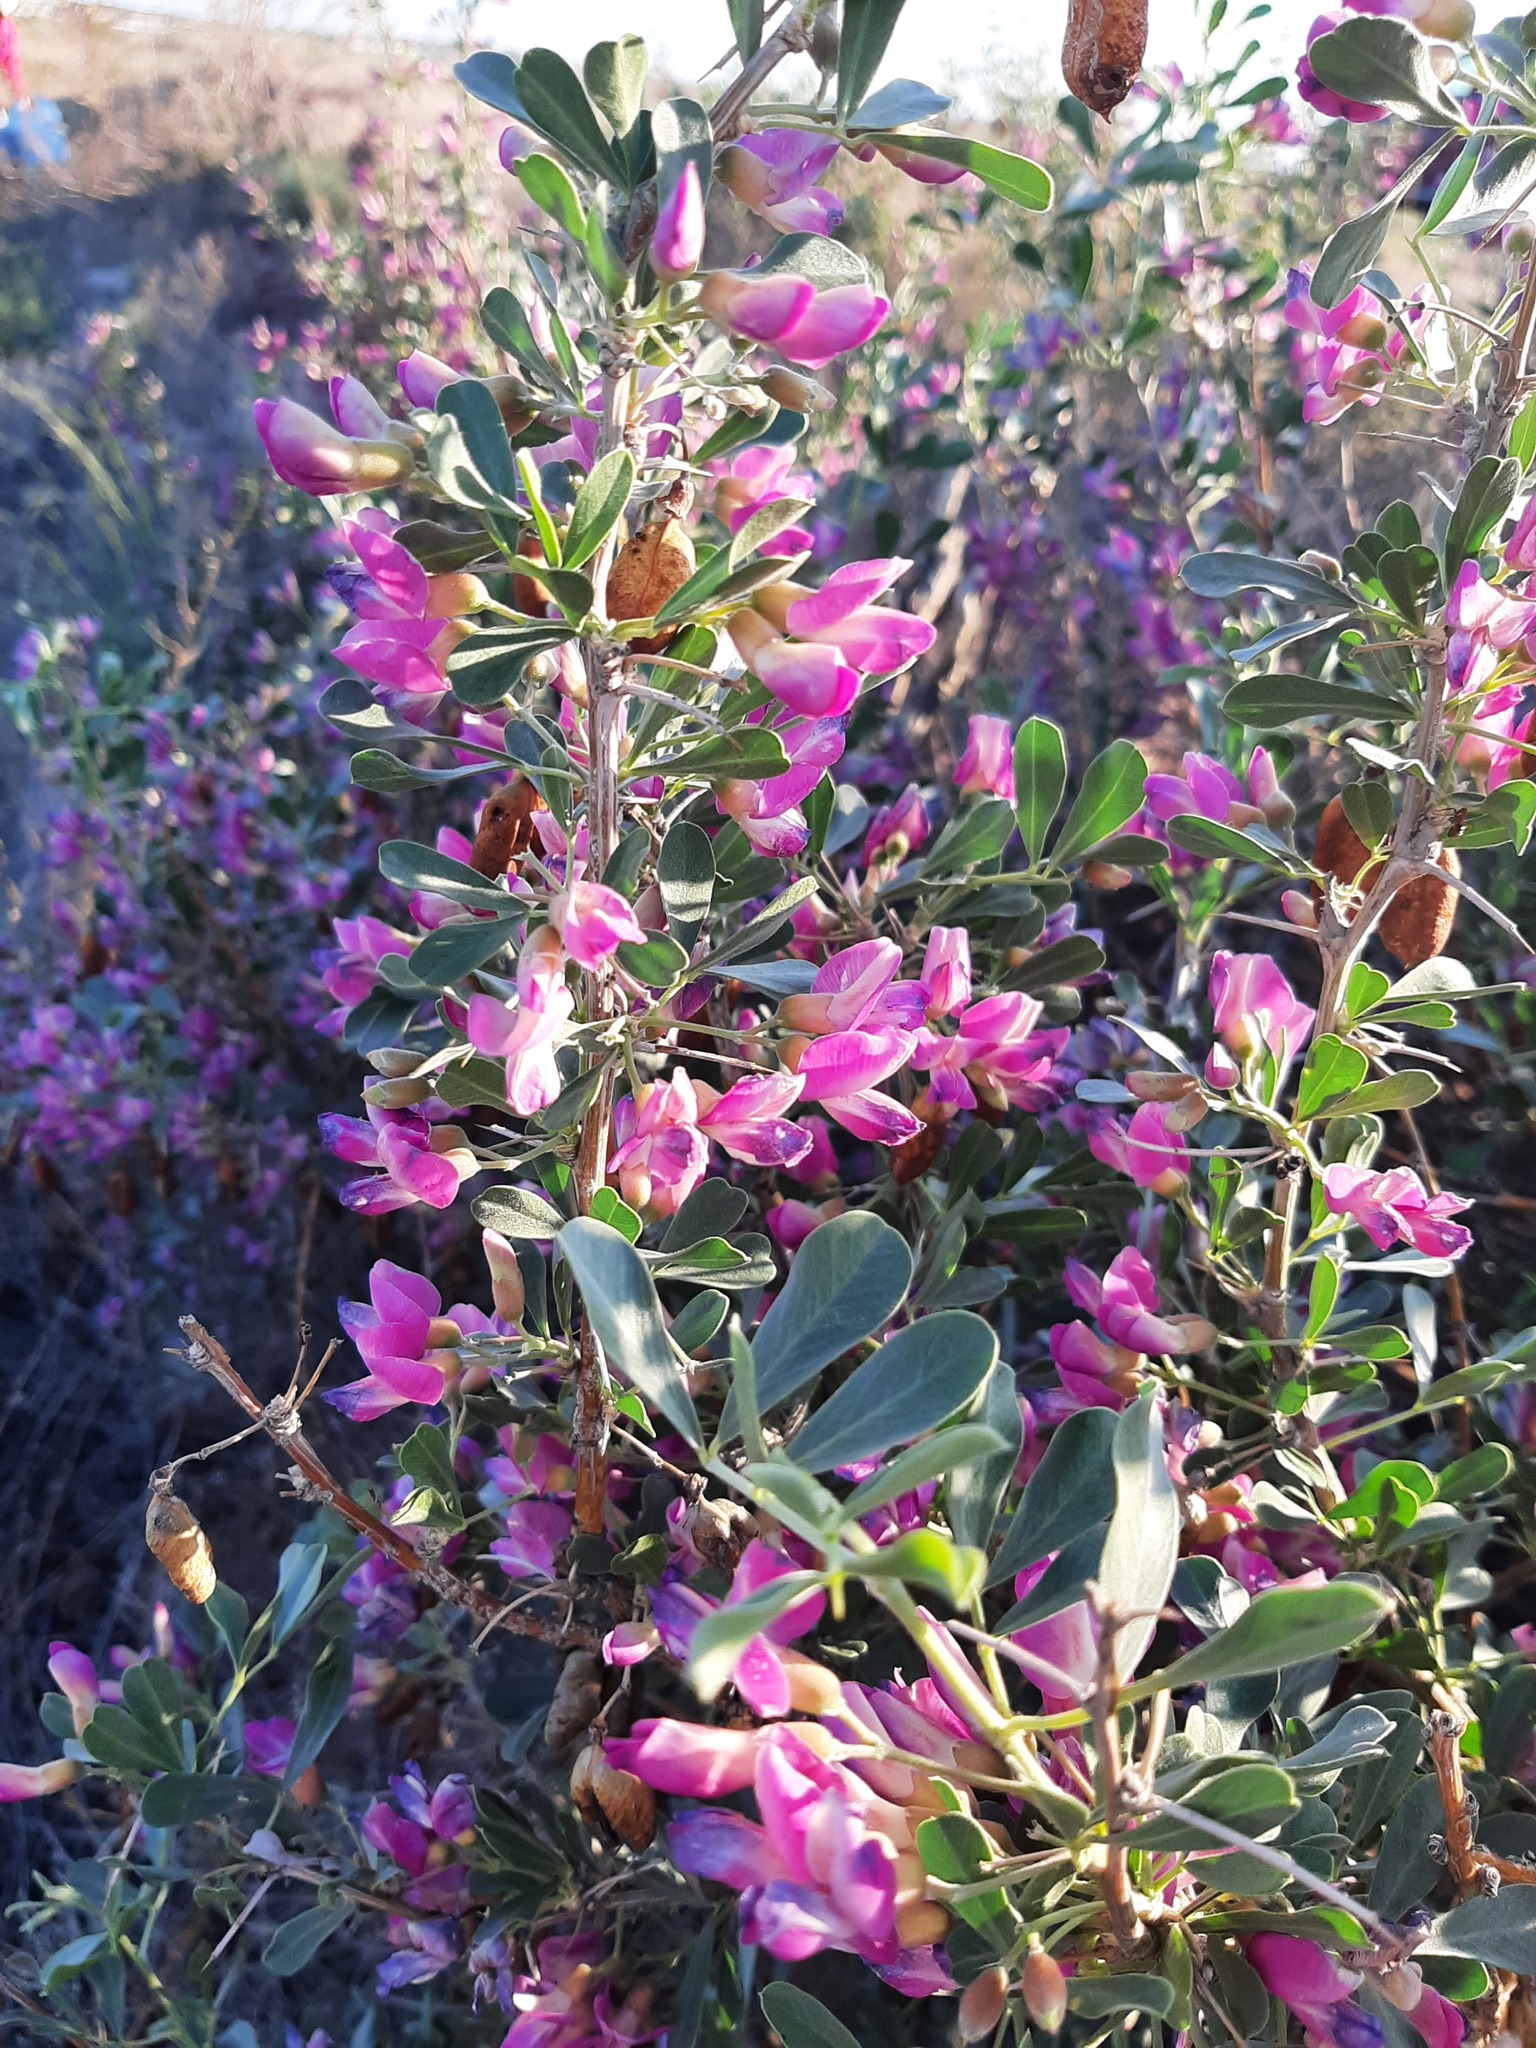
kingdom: Plantae
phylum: Tracheophyta
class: Magnoliopsida
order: Fabales
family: Fabaceae
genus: Caragana
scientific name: Caragana halodendron
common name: Siberian salt-tree
